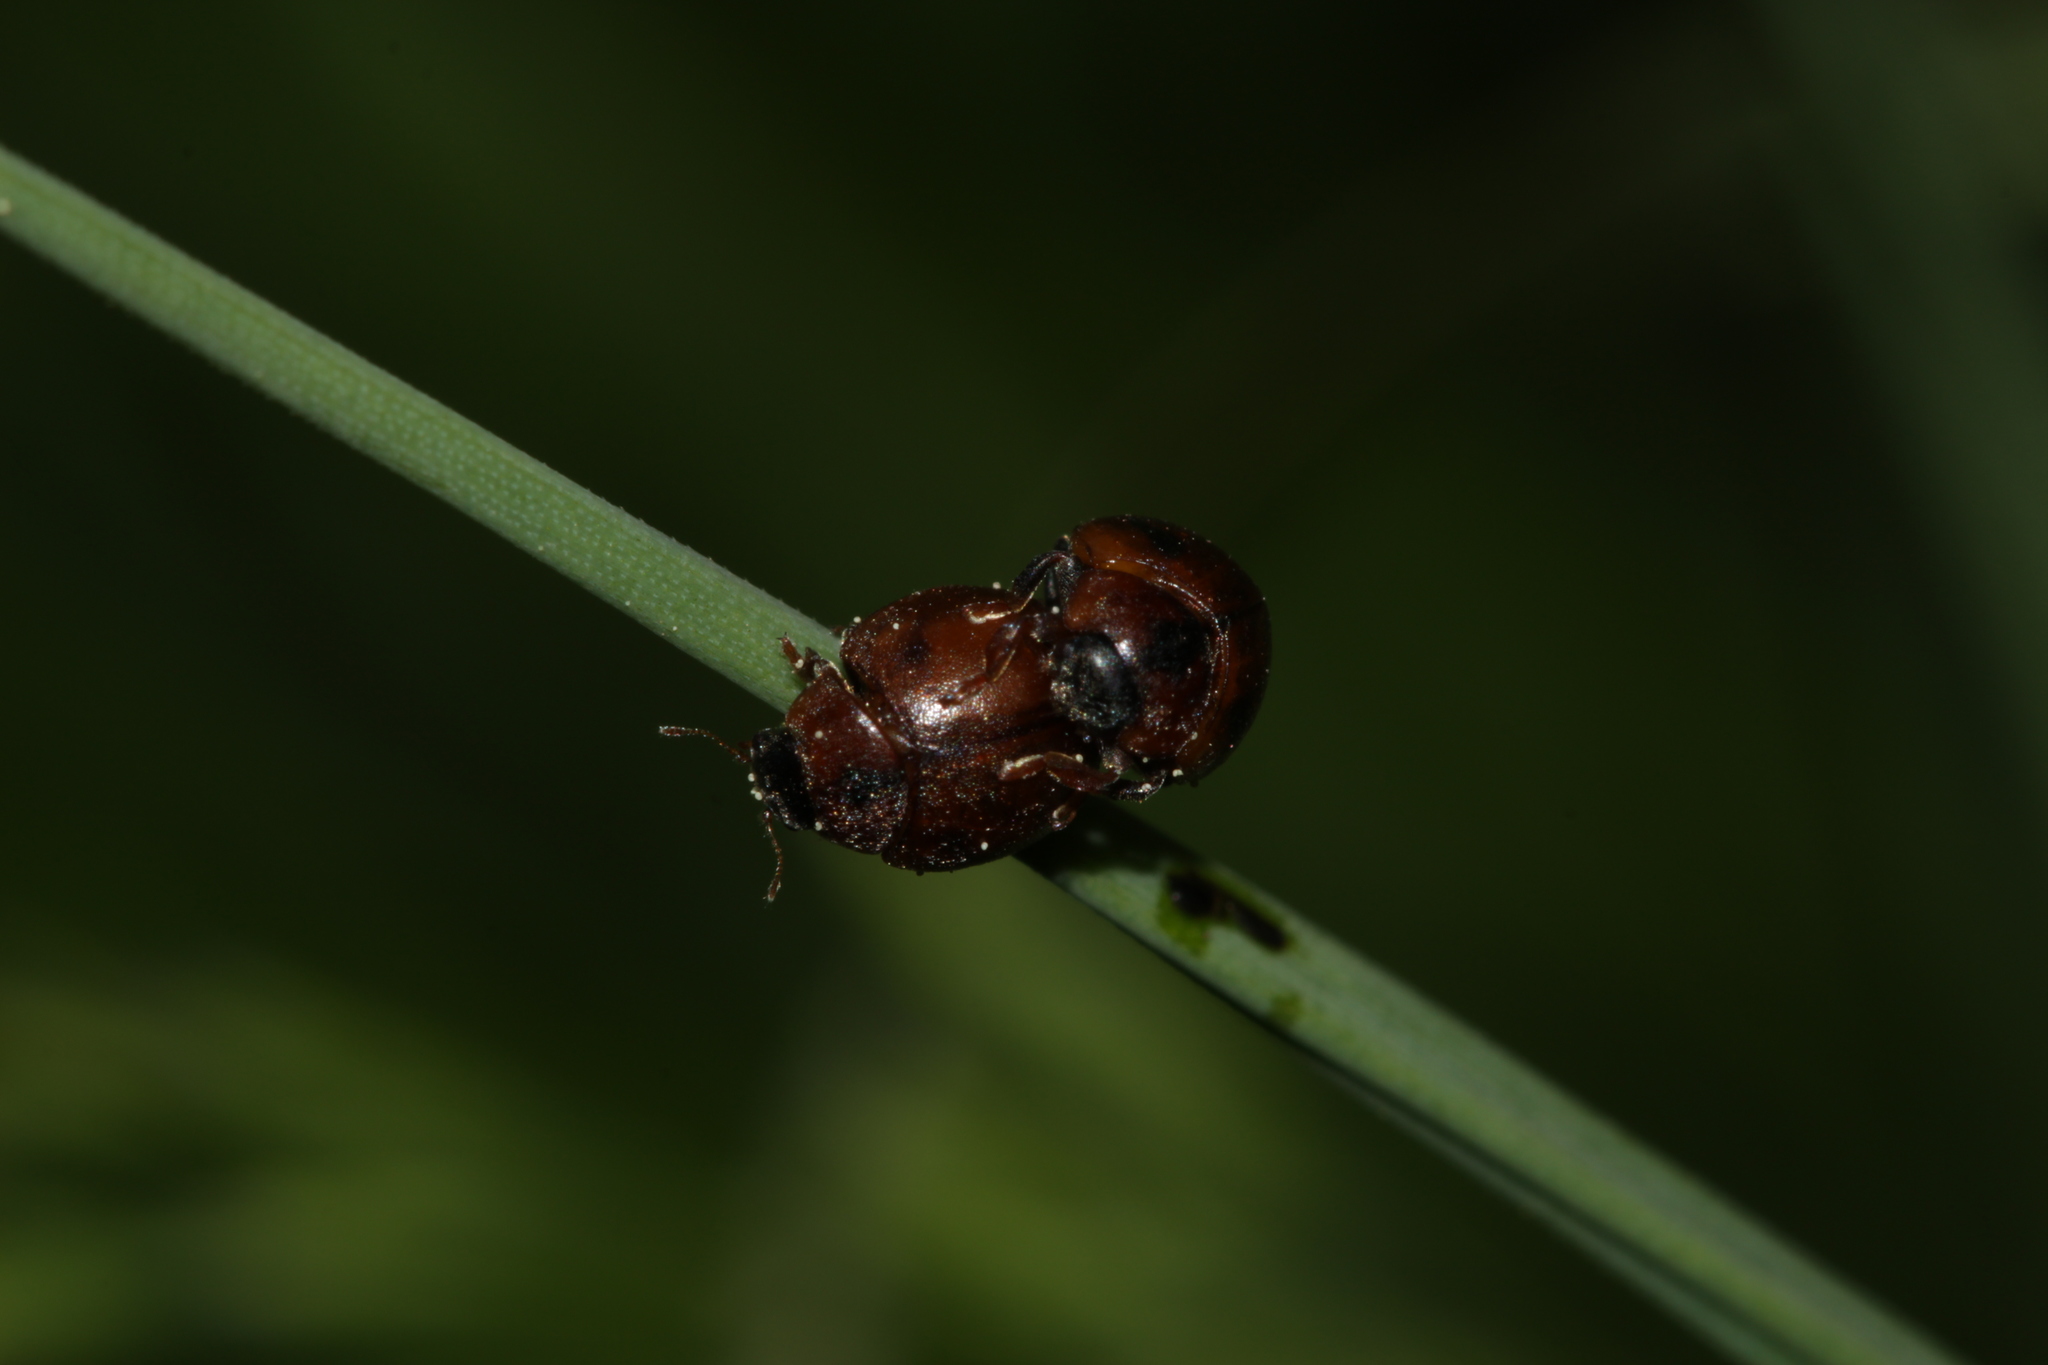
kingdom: Animalia
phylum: Arthropoda
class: Insecta
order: Coleoptera
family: Coccinellidae
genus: Cynegetis
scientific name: Cynegetis impunctata
